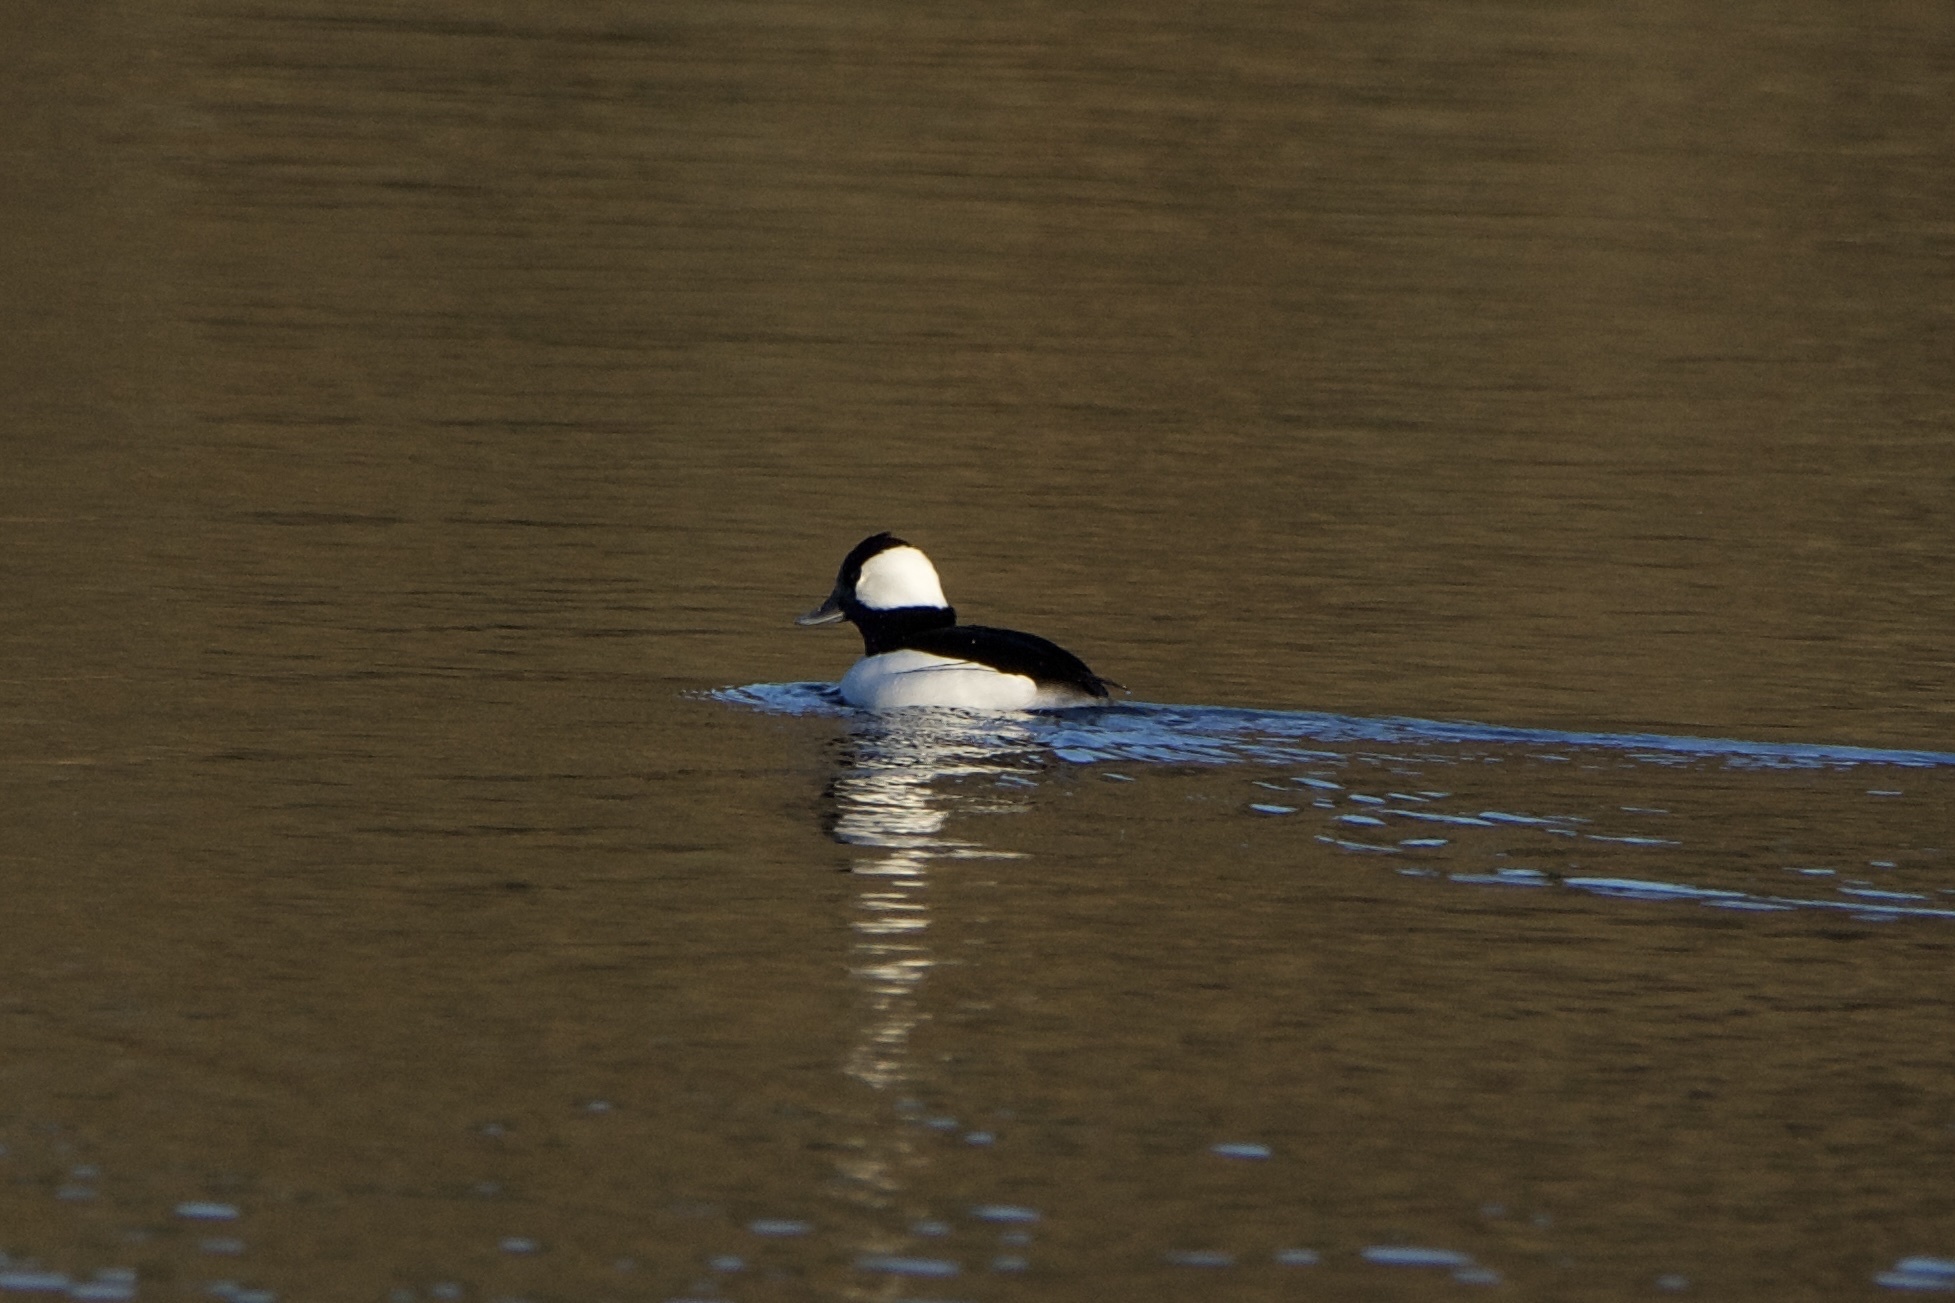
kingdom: Animalia
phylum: Chordata
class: Aves
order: Anseriformes
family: Anatidae
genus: Bucephala
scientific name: Bucephala albeola
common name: Bufflehead
